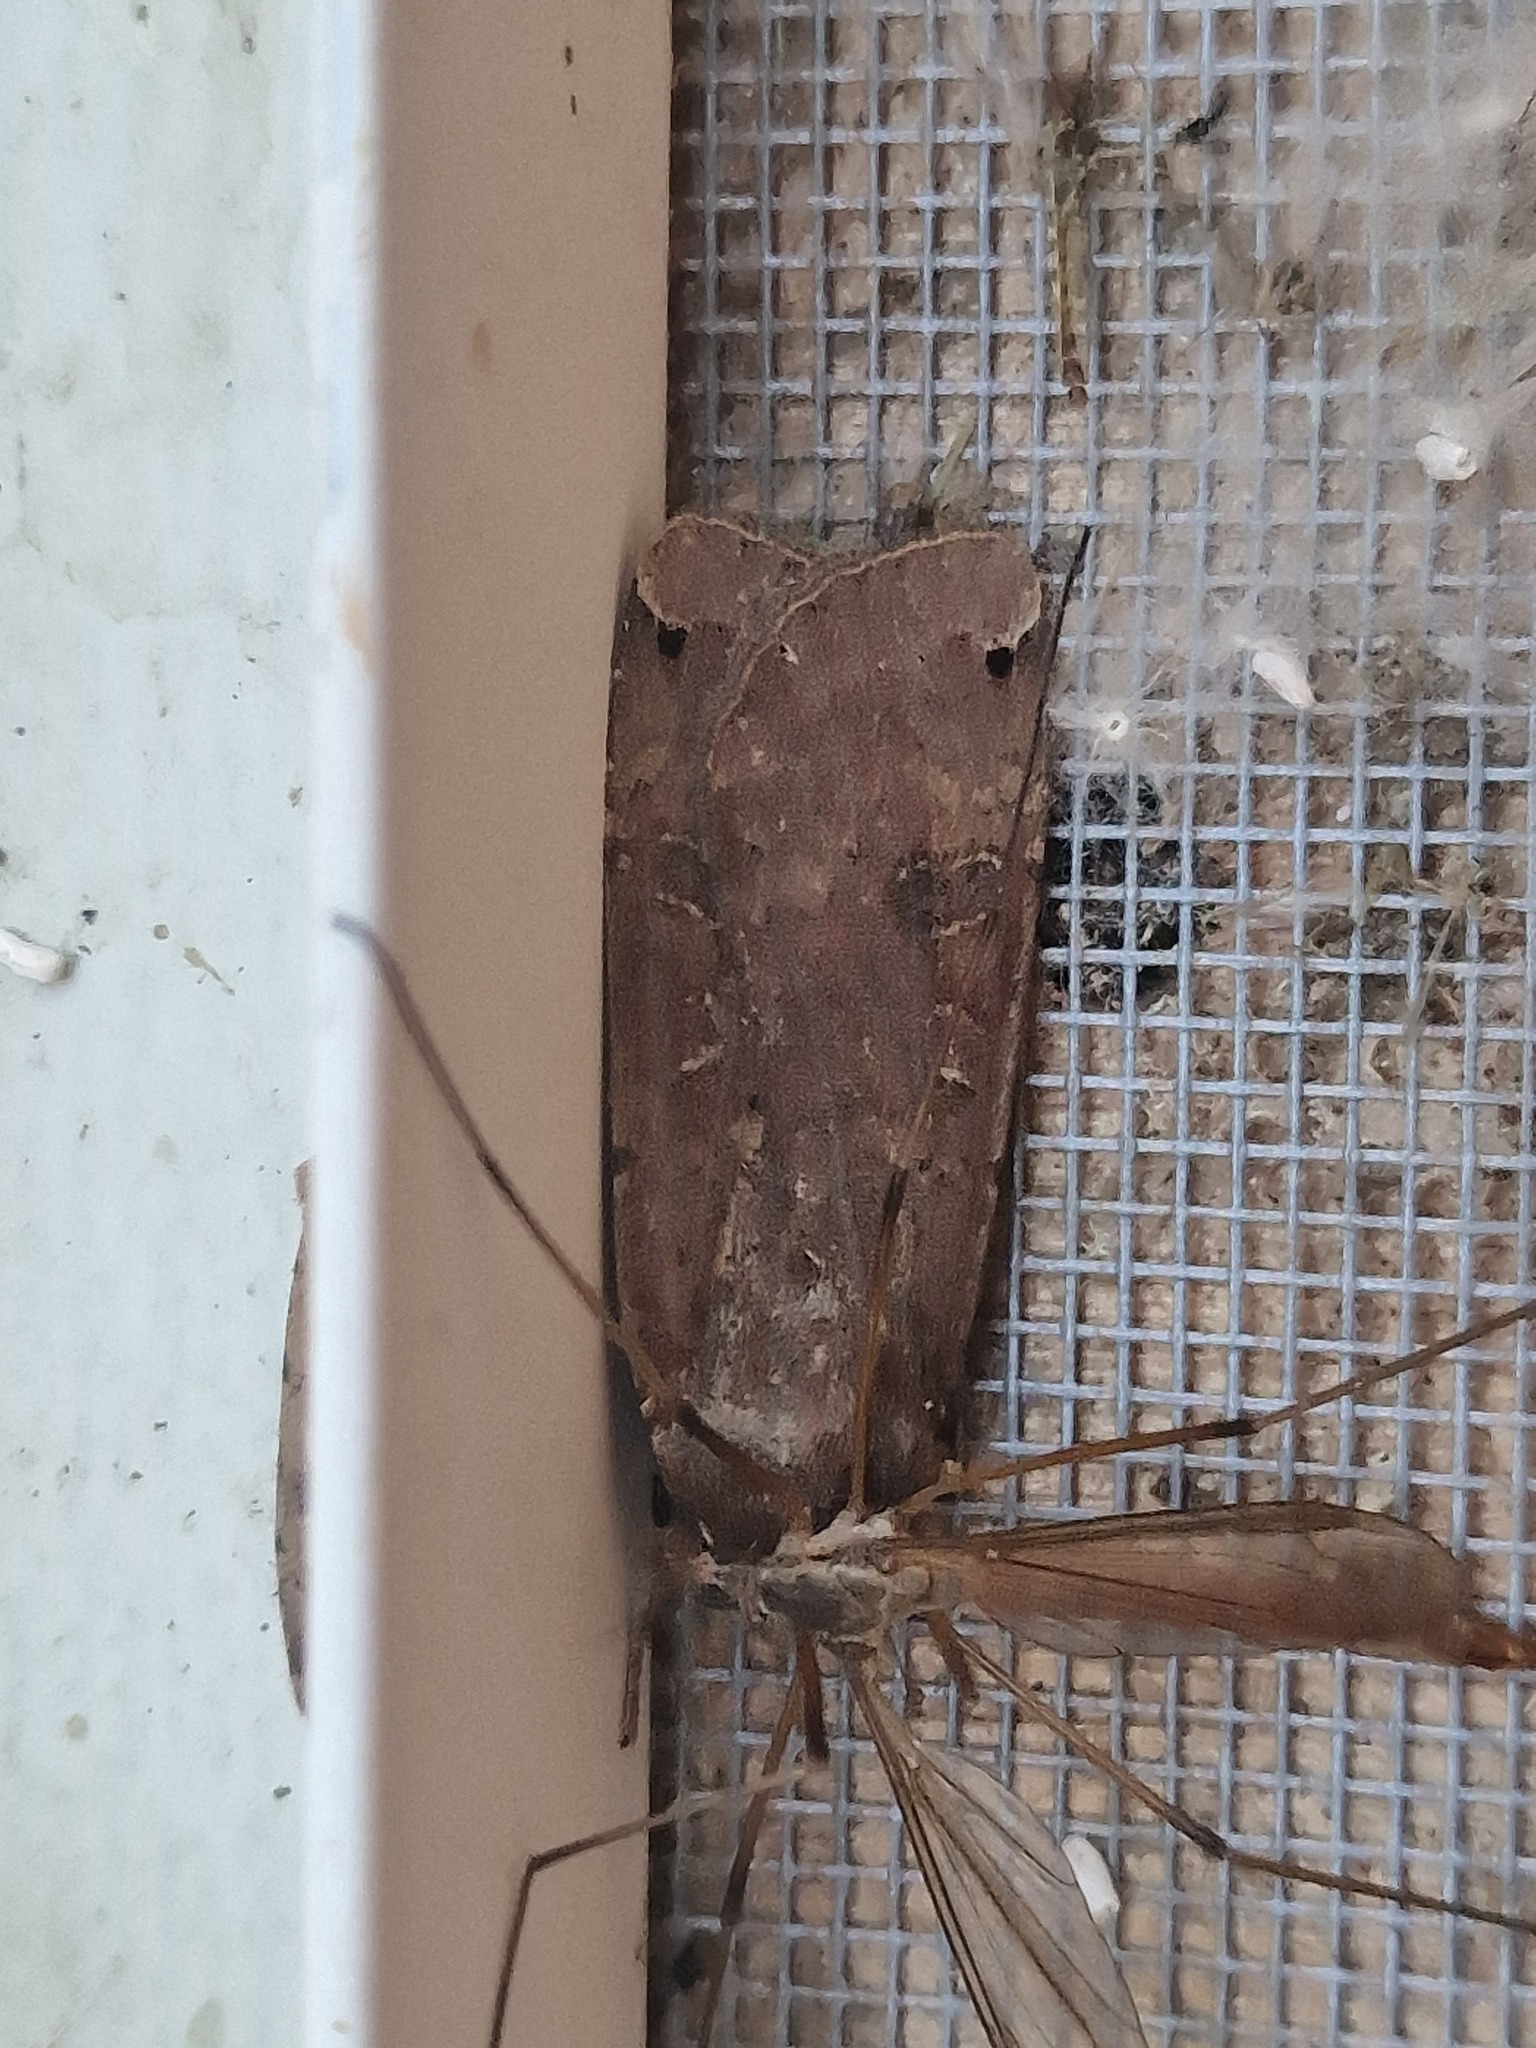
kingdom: Animalia
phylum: Arthropoda
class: Insecta
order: Lepidoptera
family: Noctuidae
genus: Noctua
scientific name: Noctua pronuba
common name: Large yellow underwing
